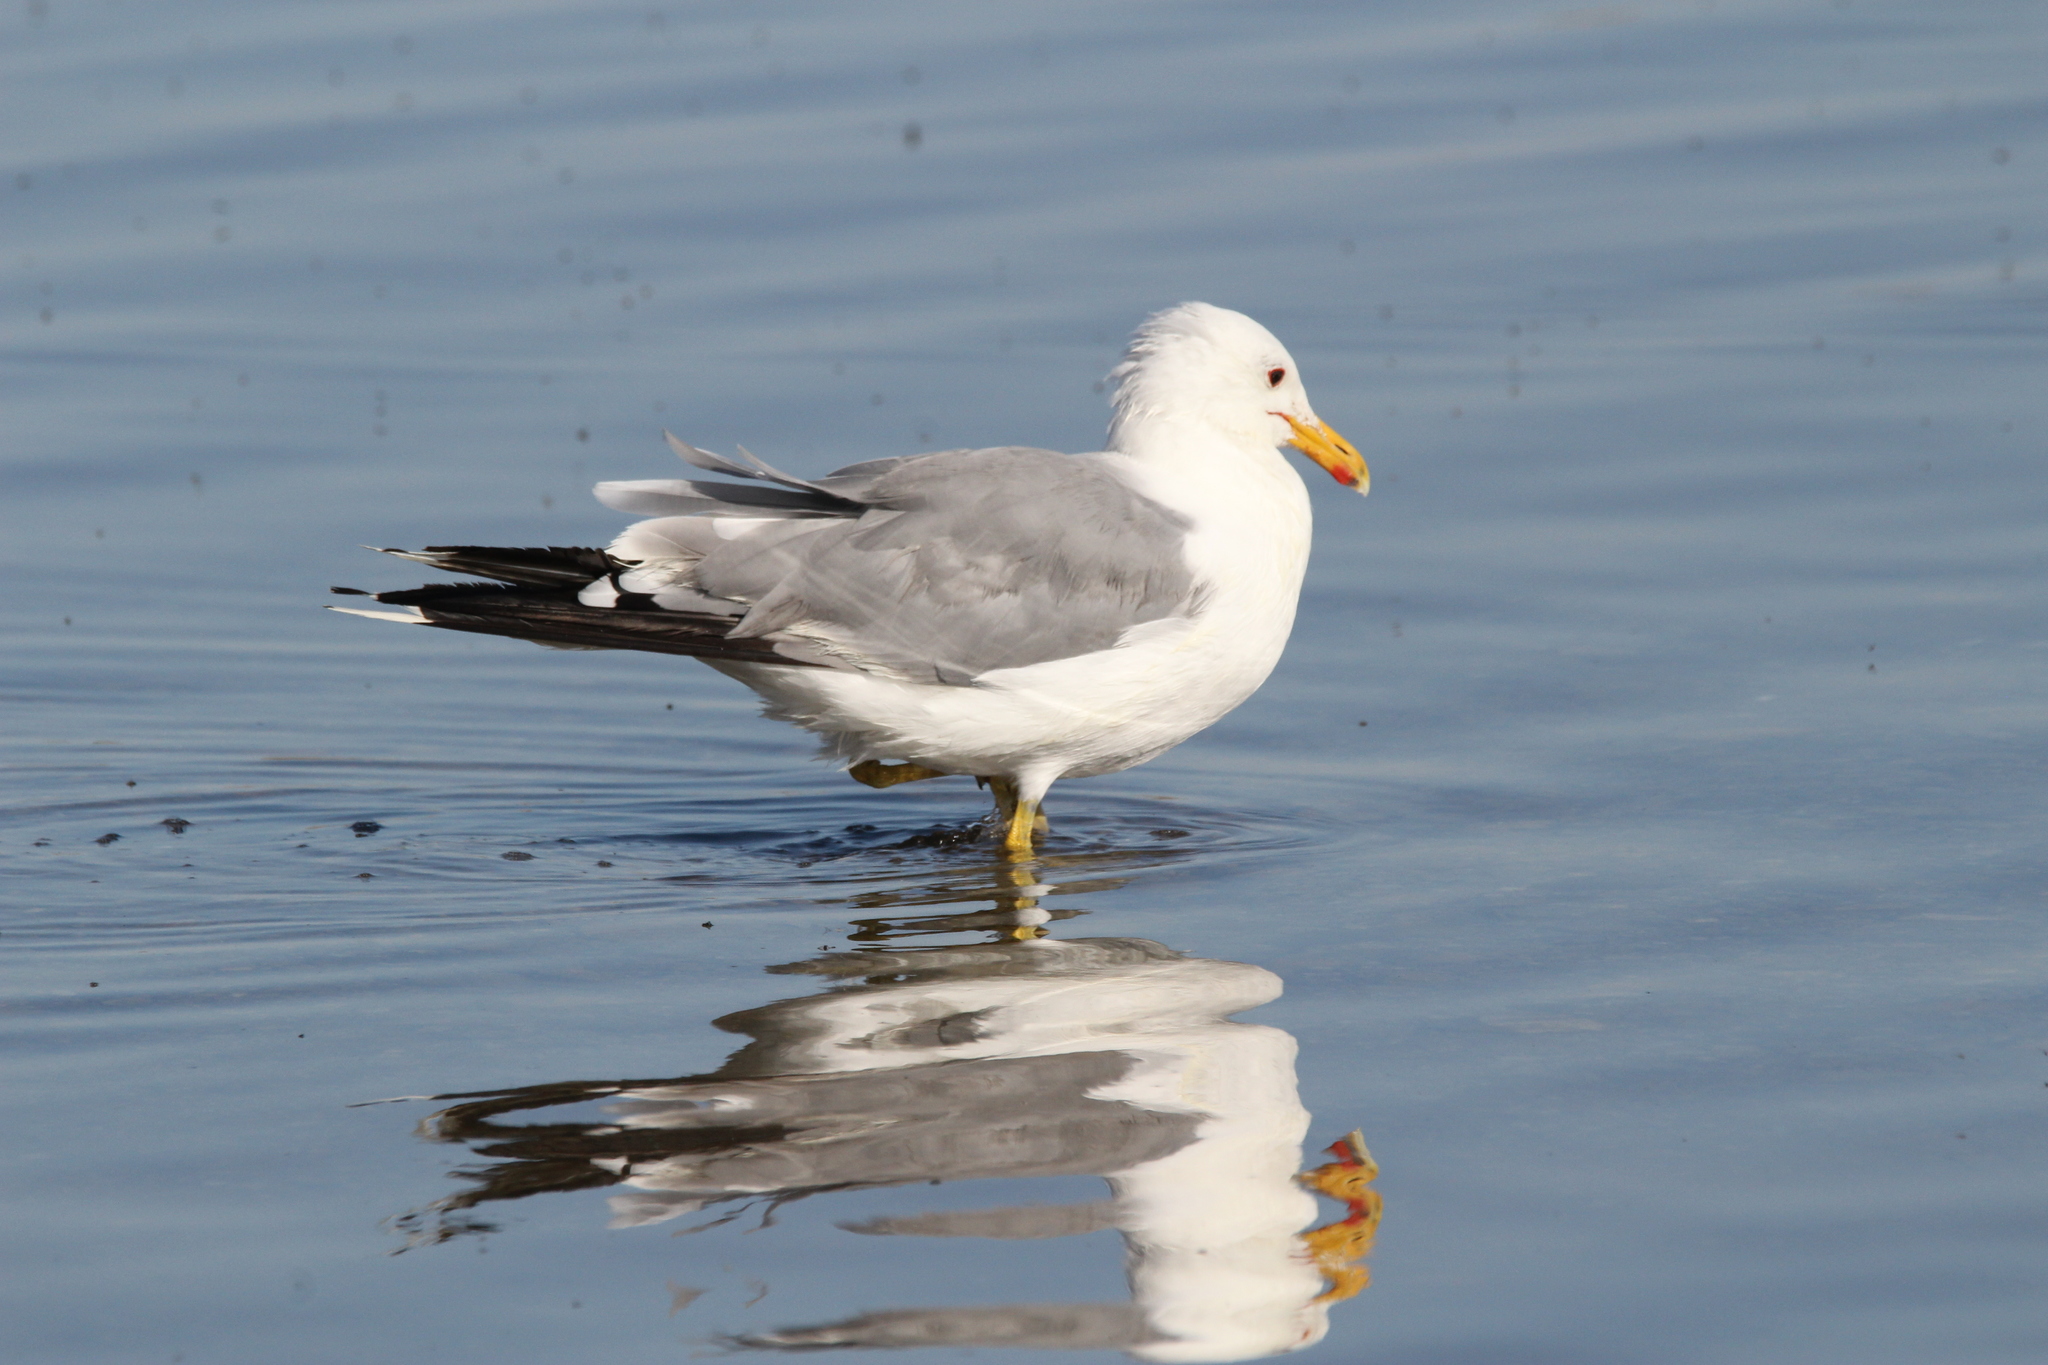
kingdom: Animalia
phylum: Chordata
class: Aves
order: Charadriiformes
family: Laridae
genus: Larus
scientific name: Larus californicus
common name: California gull
